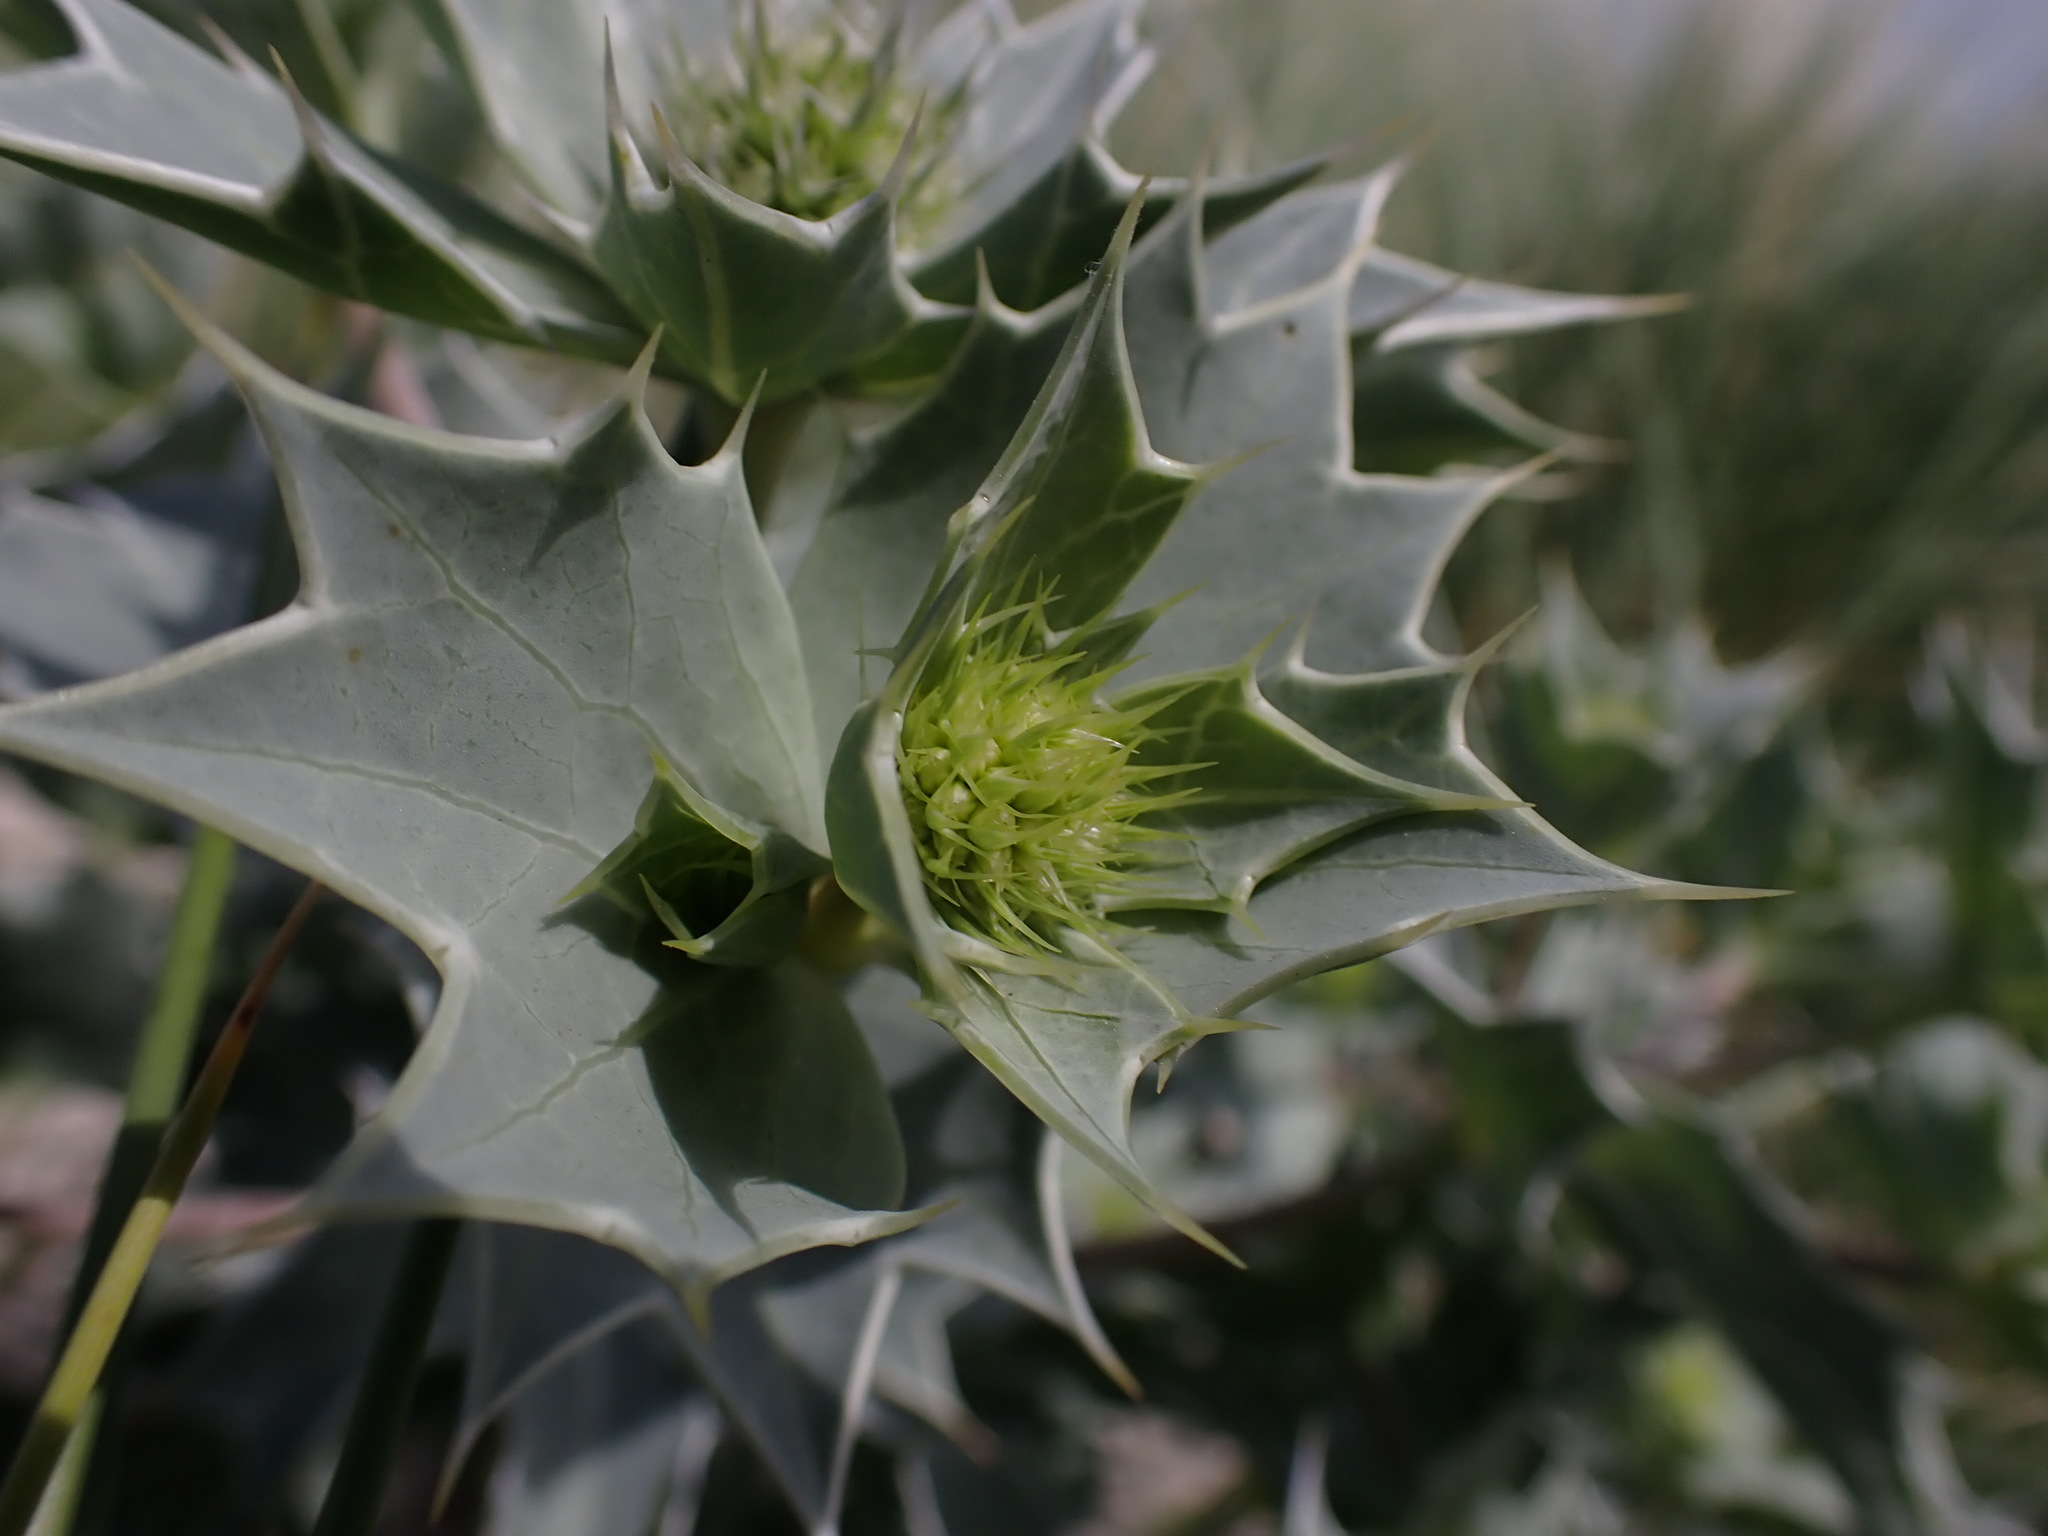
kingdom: Plantae
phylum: Tracheophyta
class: Magnoliopsida
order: Apiales
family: Apiaceae
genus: Eryngium
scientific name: Eryngium maritimum
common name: Sea-holly
